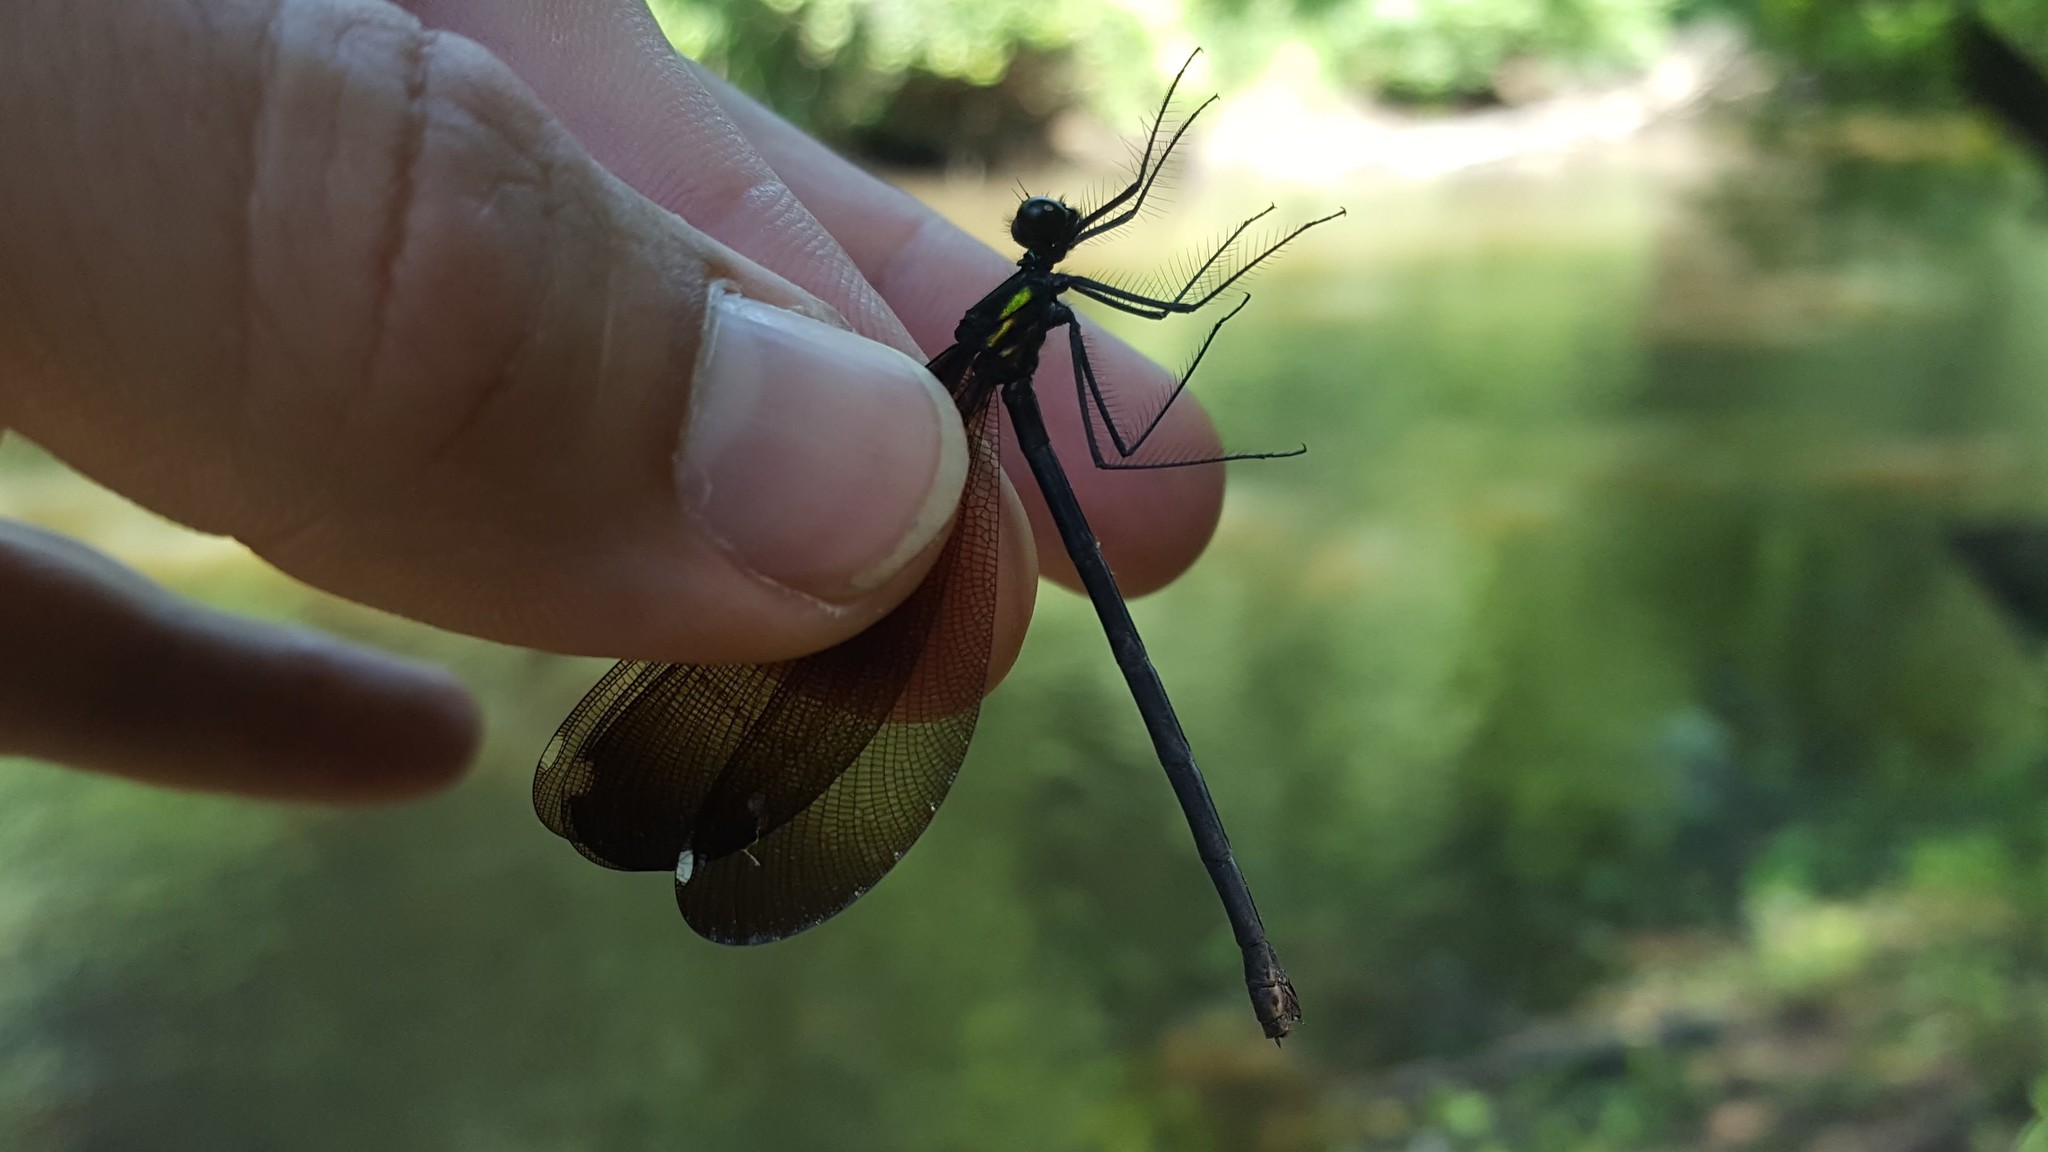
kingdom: Animalia
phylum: Arthropoda
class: Insecta
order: Odonata
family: Calopterygidae
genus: Calopteryx
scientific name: Calopteryx maculata
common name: Ebony jewelwing
